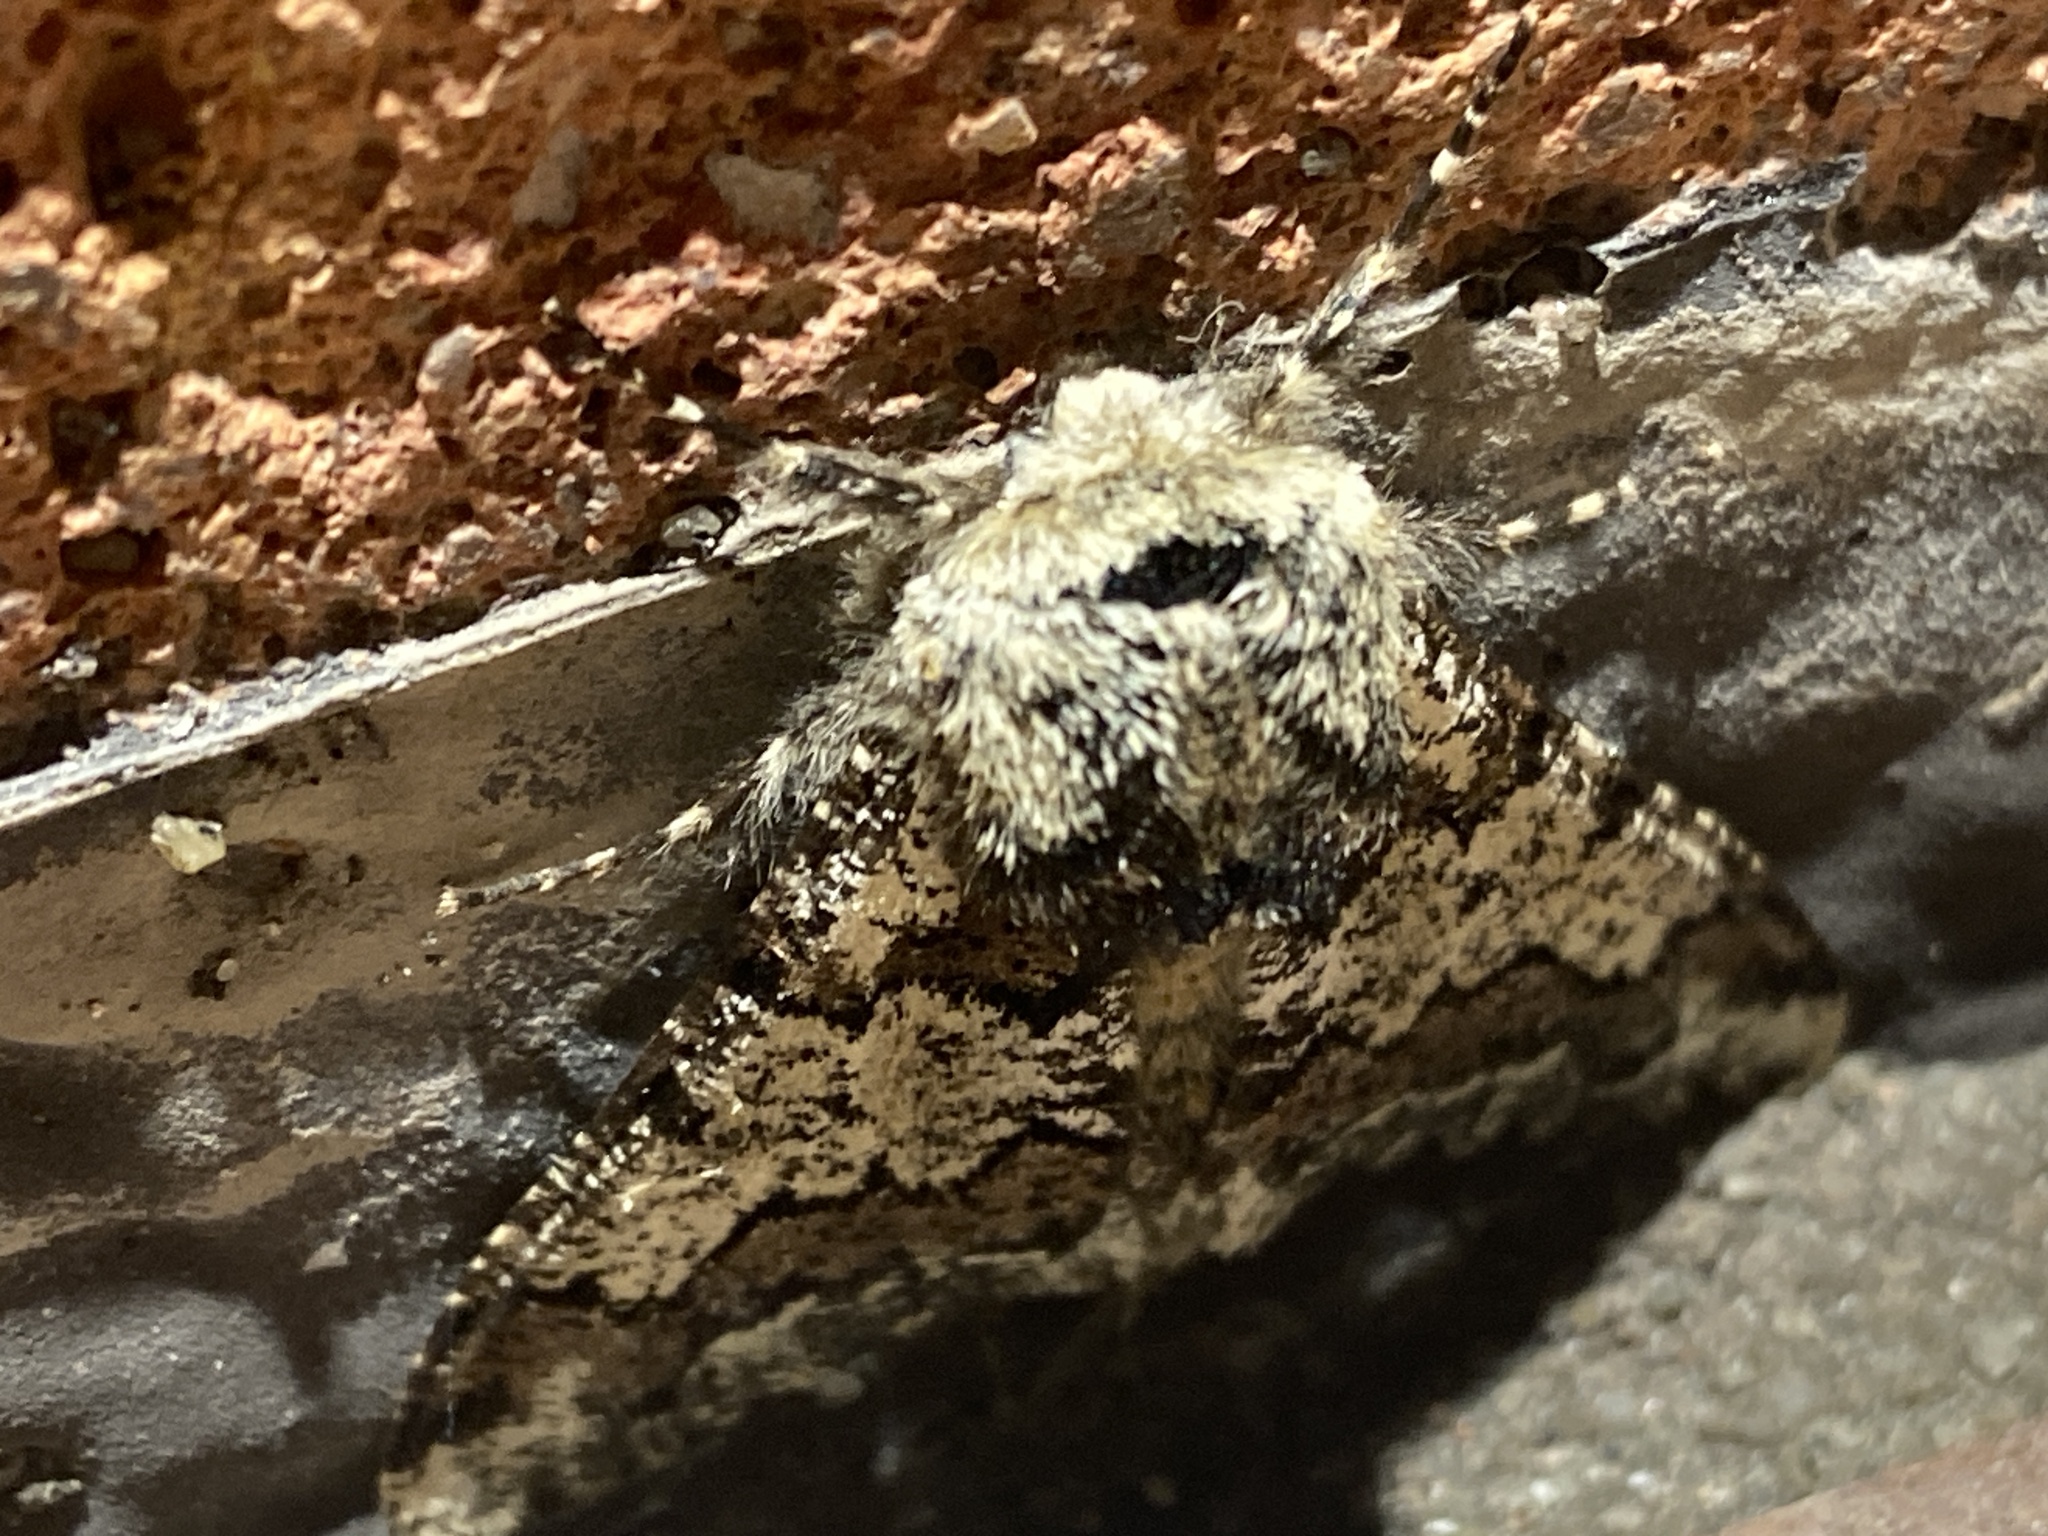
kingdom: Animalia
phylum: Arthropoda
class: Insecta
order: Lepidoptera
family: Geometridae
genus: Biston
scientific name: Biston strataria
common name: Oak beauty
